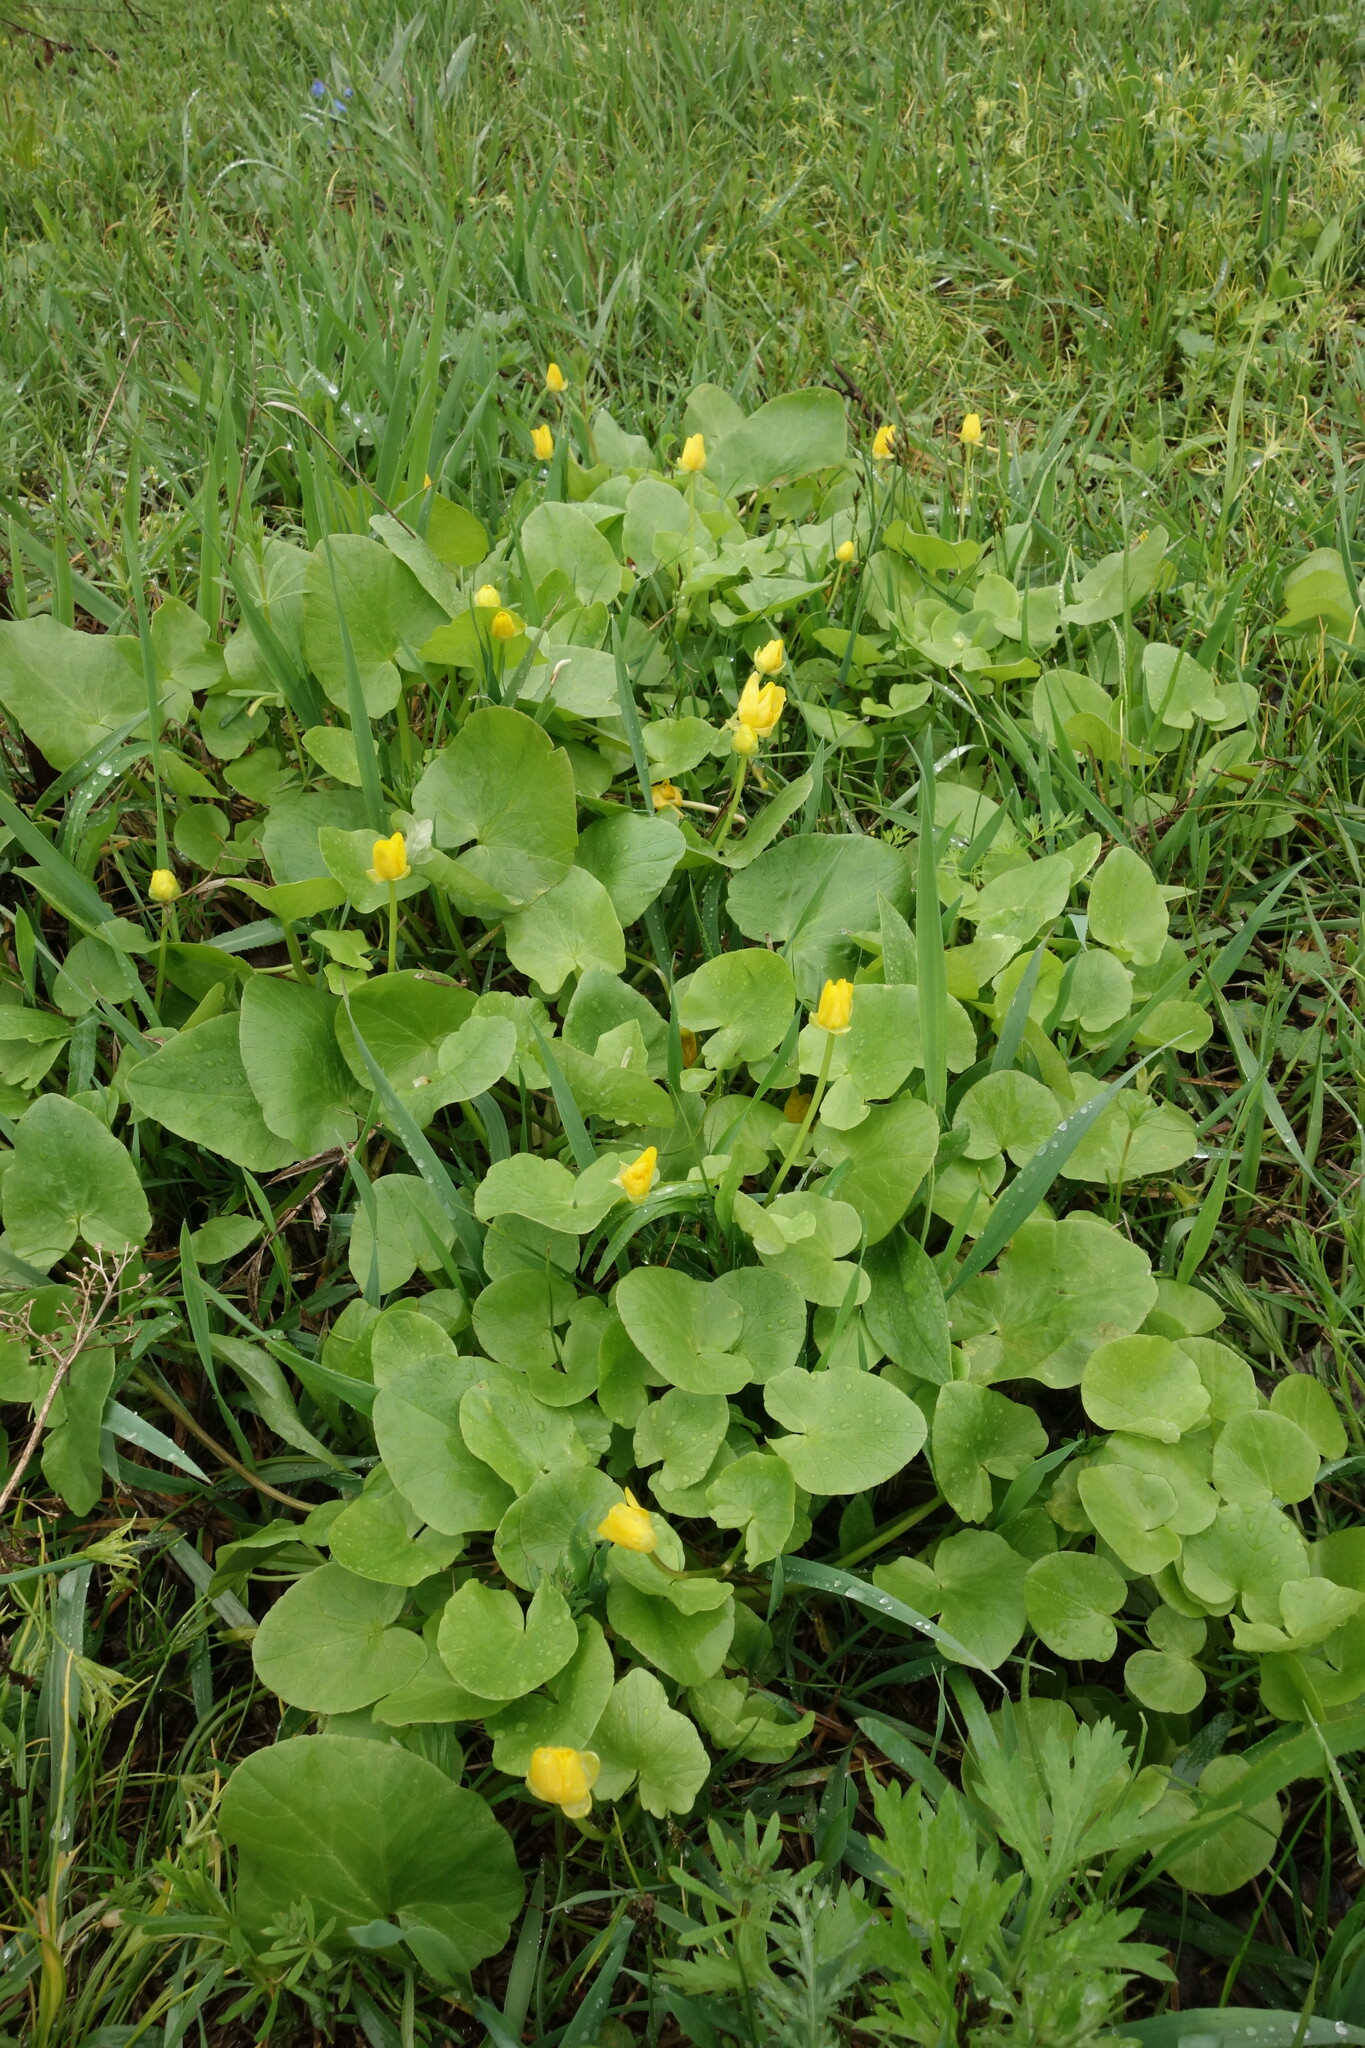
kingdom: Plantae
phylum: Tracheophyta
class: Magnoliopsida
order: Ranunculales
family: Ranunculaceae
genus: Ficaria
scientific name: Ficaria verna
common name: Lesser celandine
